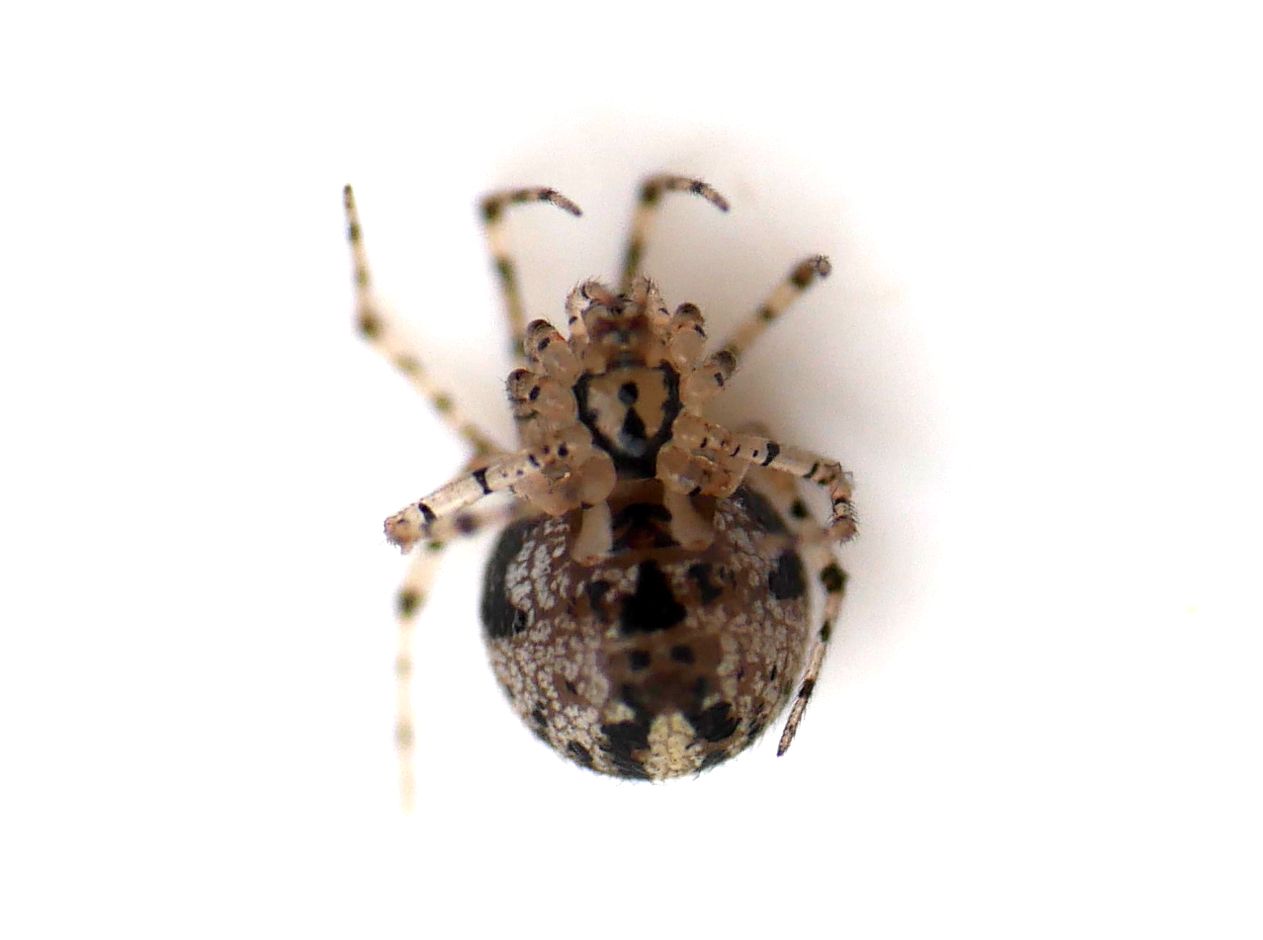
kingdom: Animalia
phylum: Arthropoda
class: Arachnida
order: Araneae
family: Theridiidae
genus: Platnickina
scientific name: Platnickina tincta
